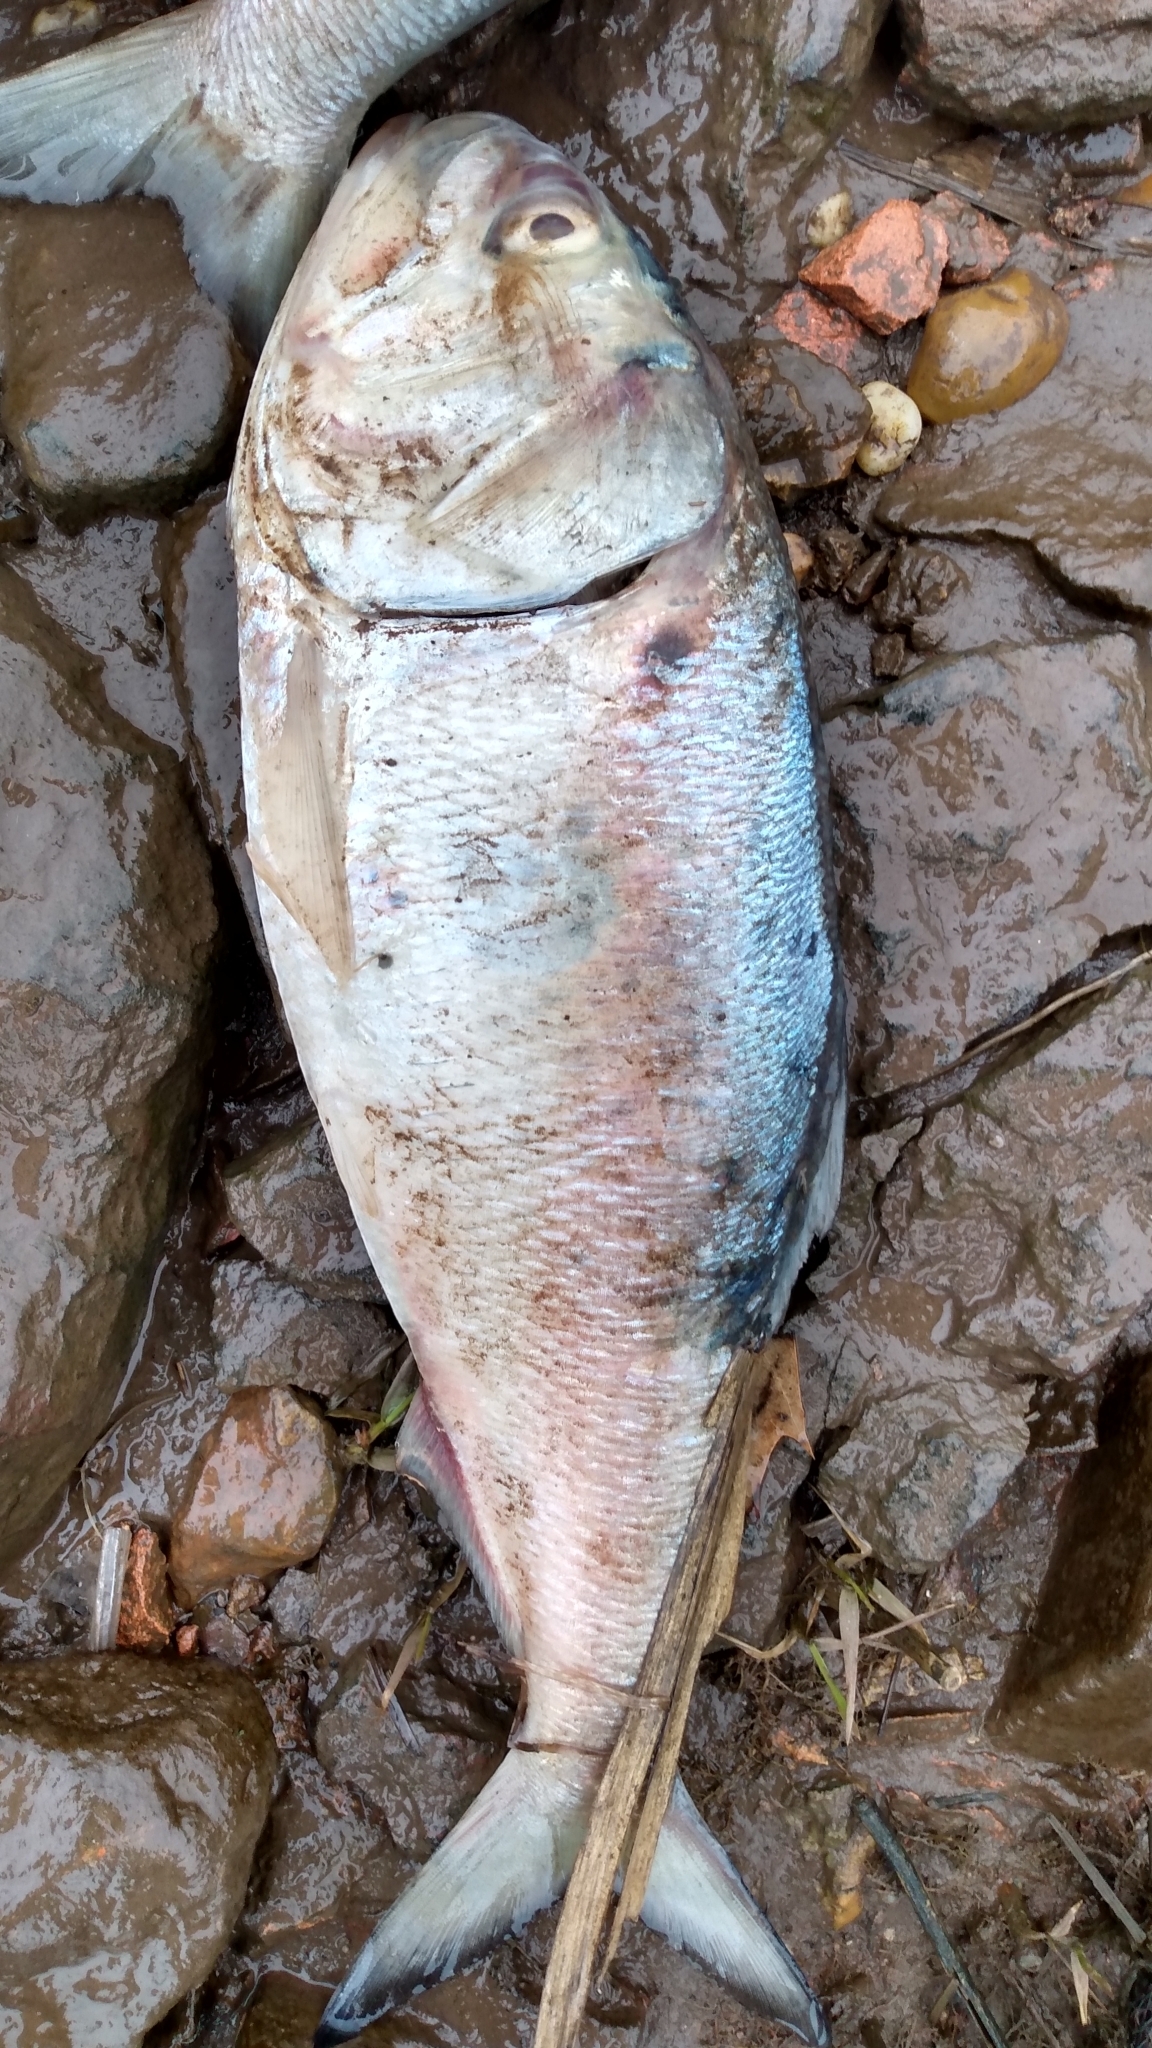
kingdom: Animalia
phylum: Chordata
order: Clupeiformes
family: Clupeidae
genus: Brevoortia
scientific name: Brevoortia tyrannus
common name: Atlantic menhaden
